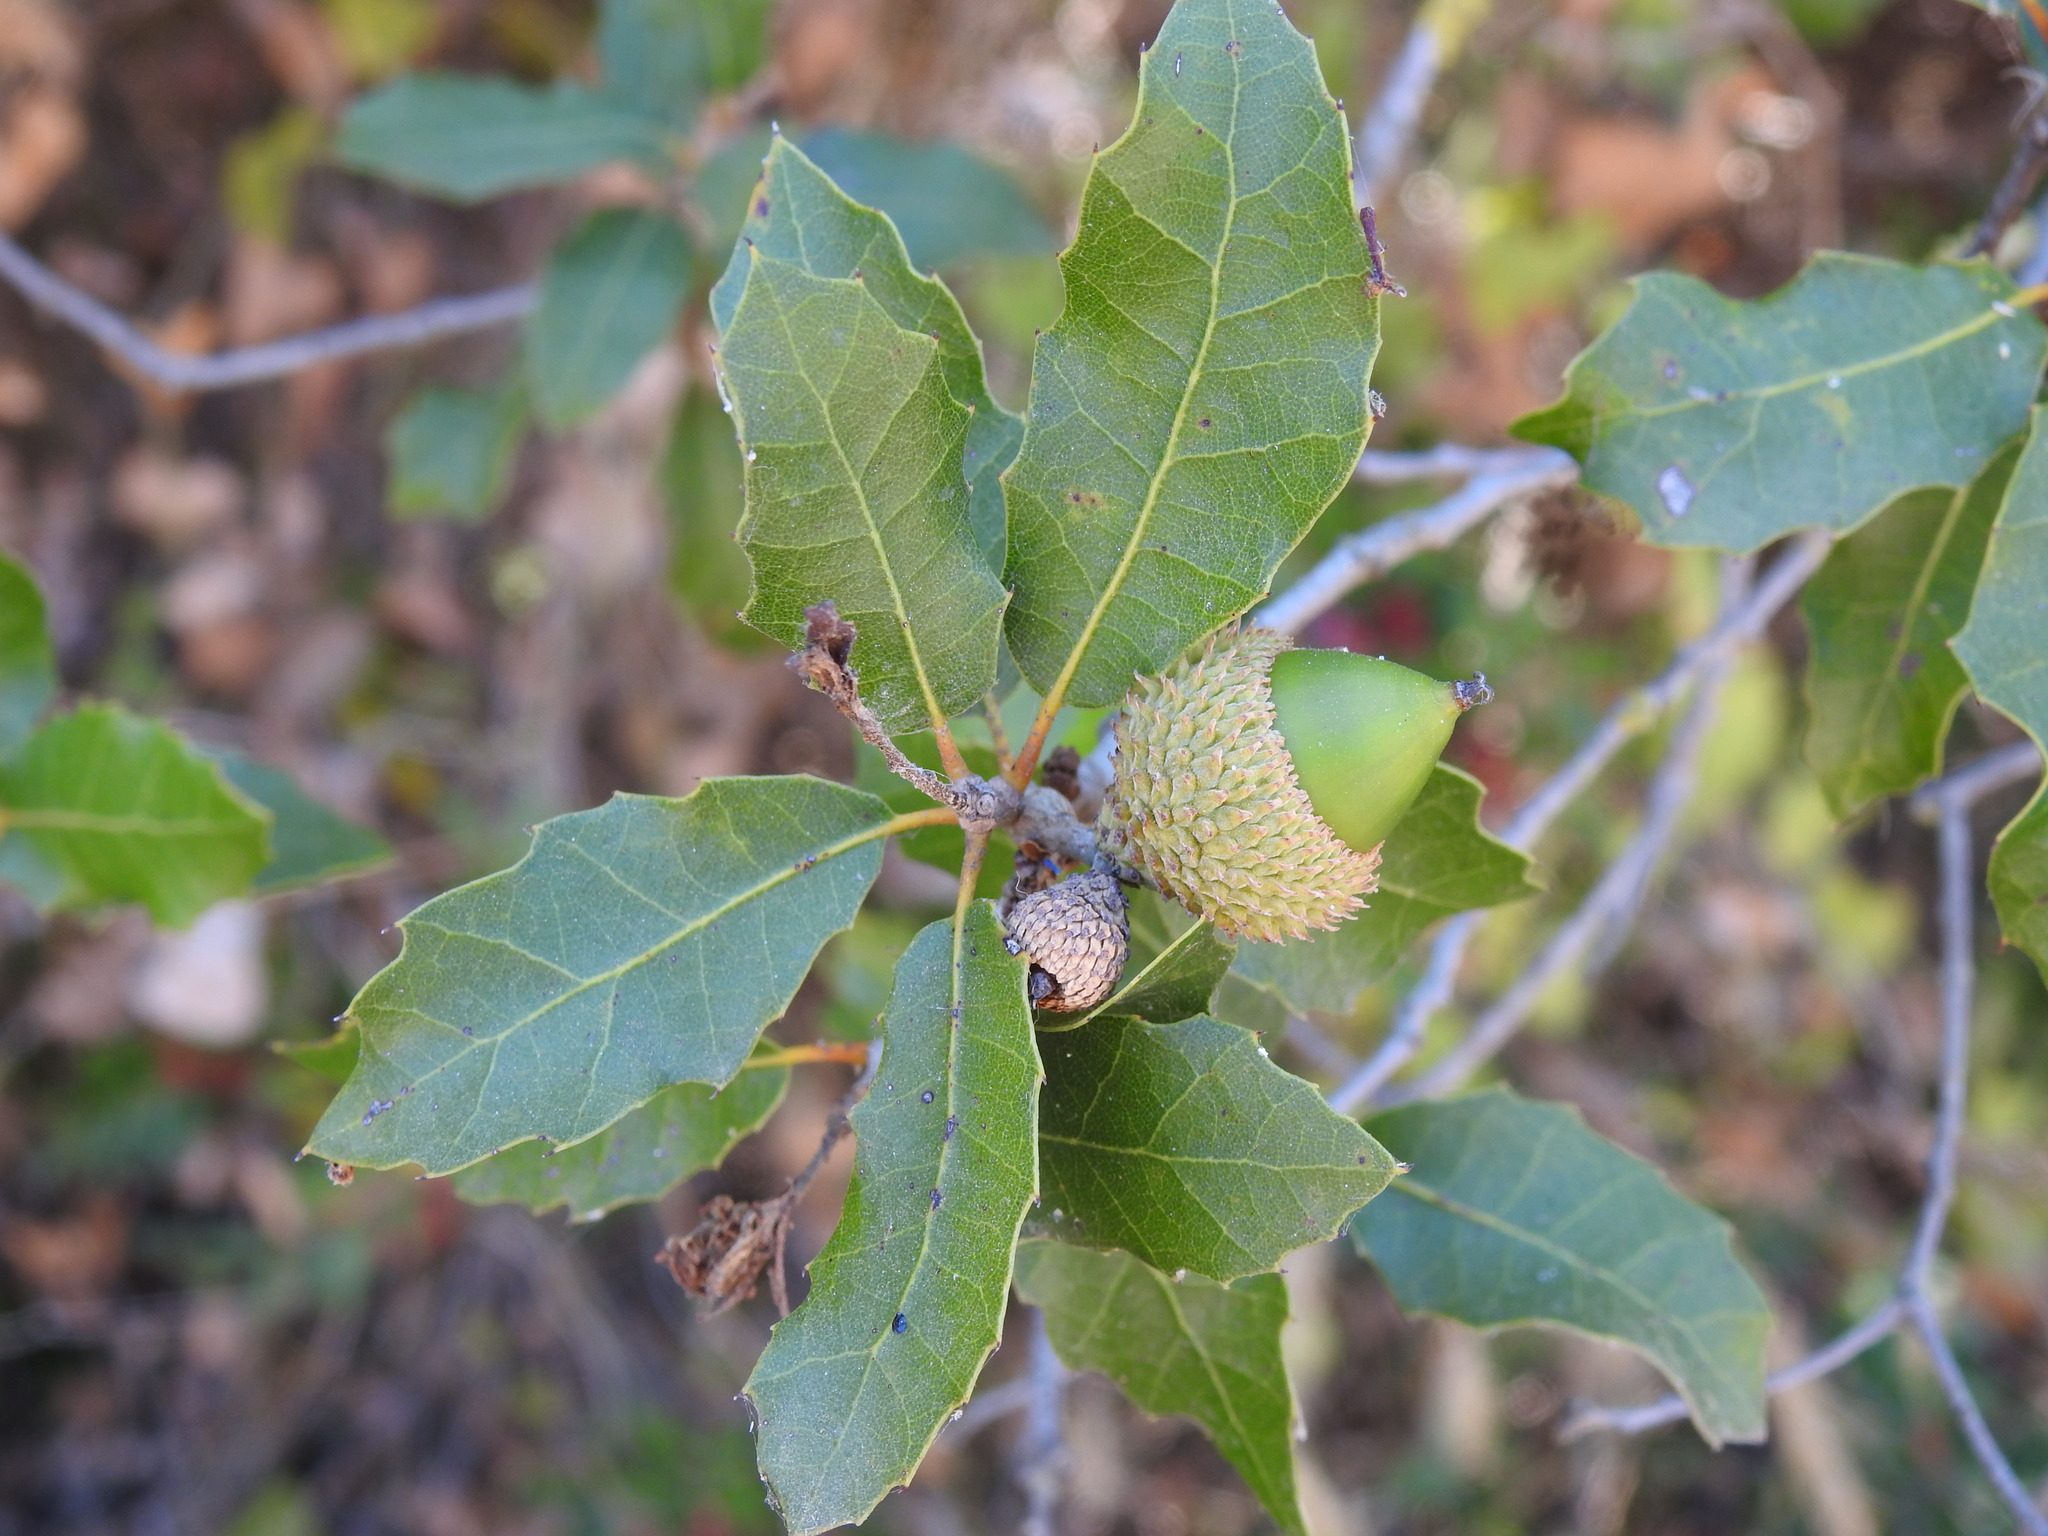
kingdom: Plantae
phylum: Tracheophyta
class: Magnoliopsida
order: Fagales
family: Fagaceae
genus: Quercus
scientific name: Quercus coccifera
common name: Kermes oak
